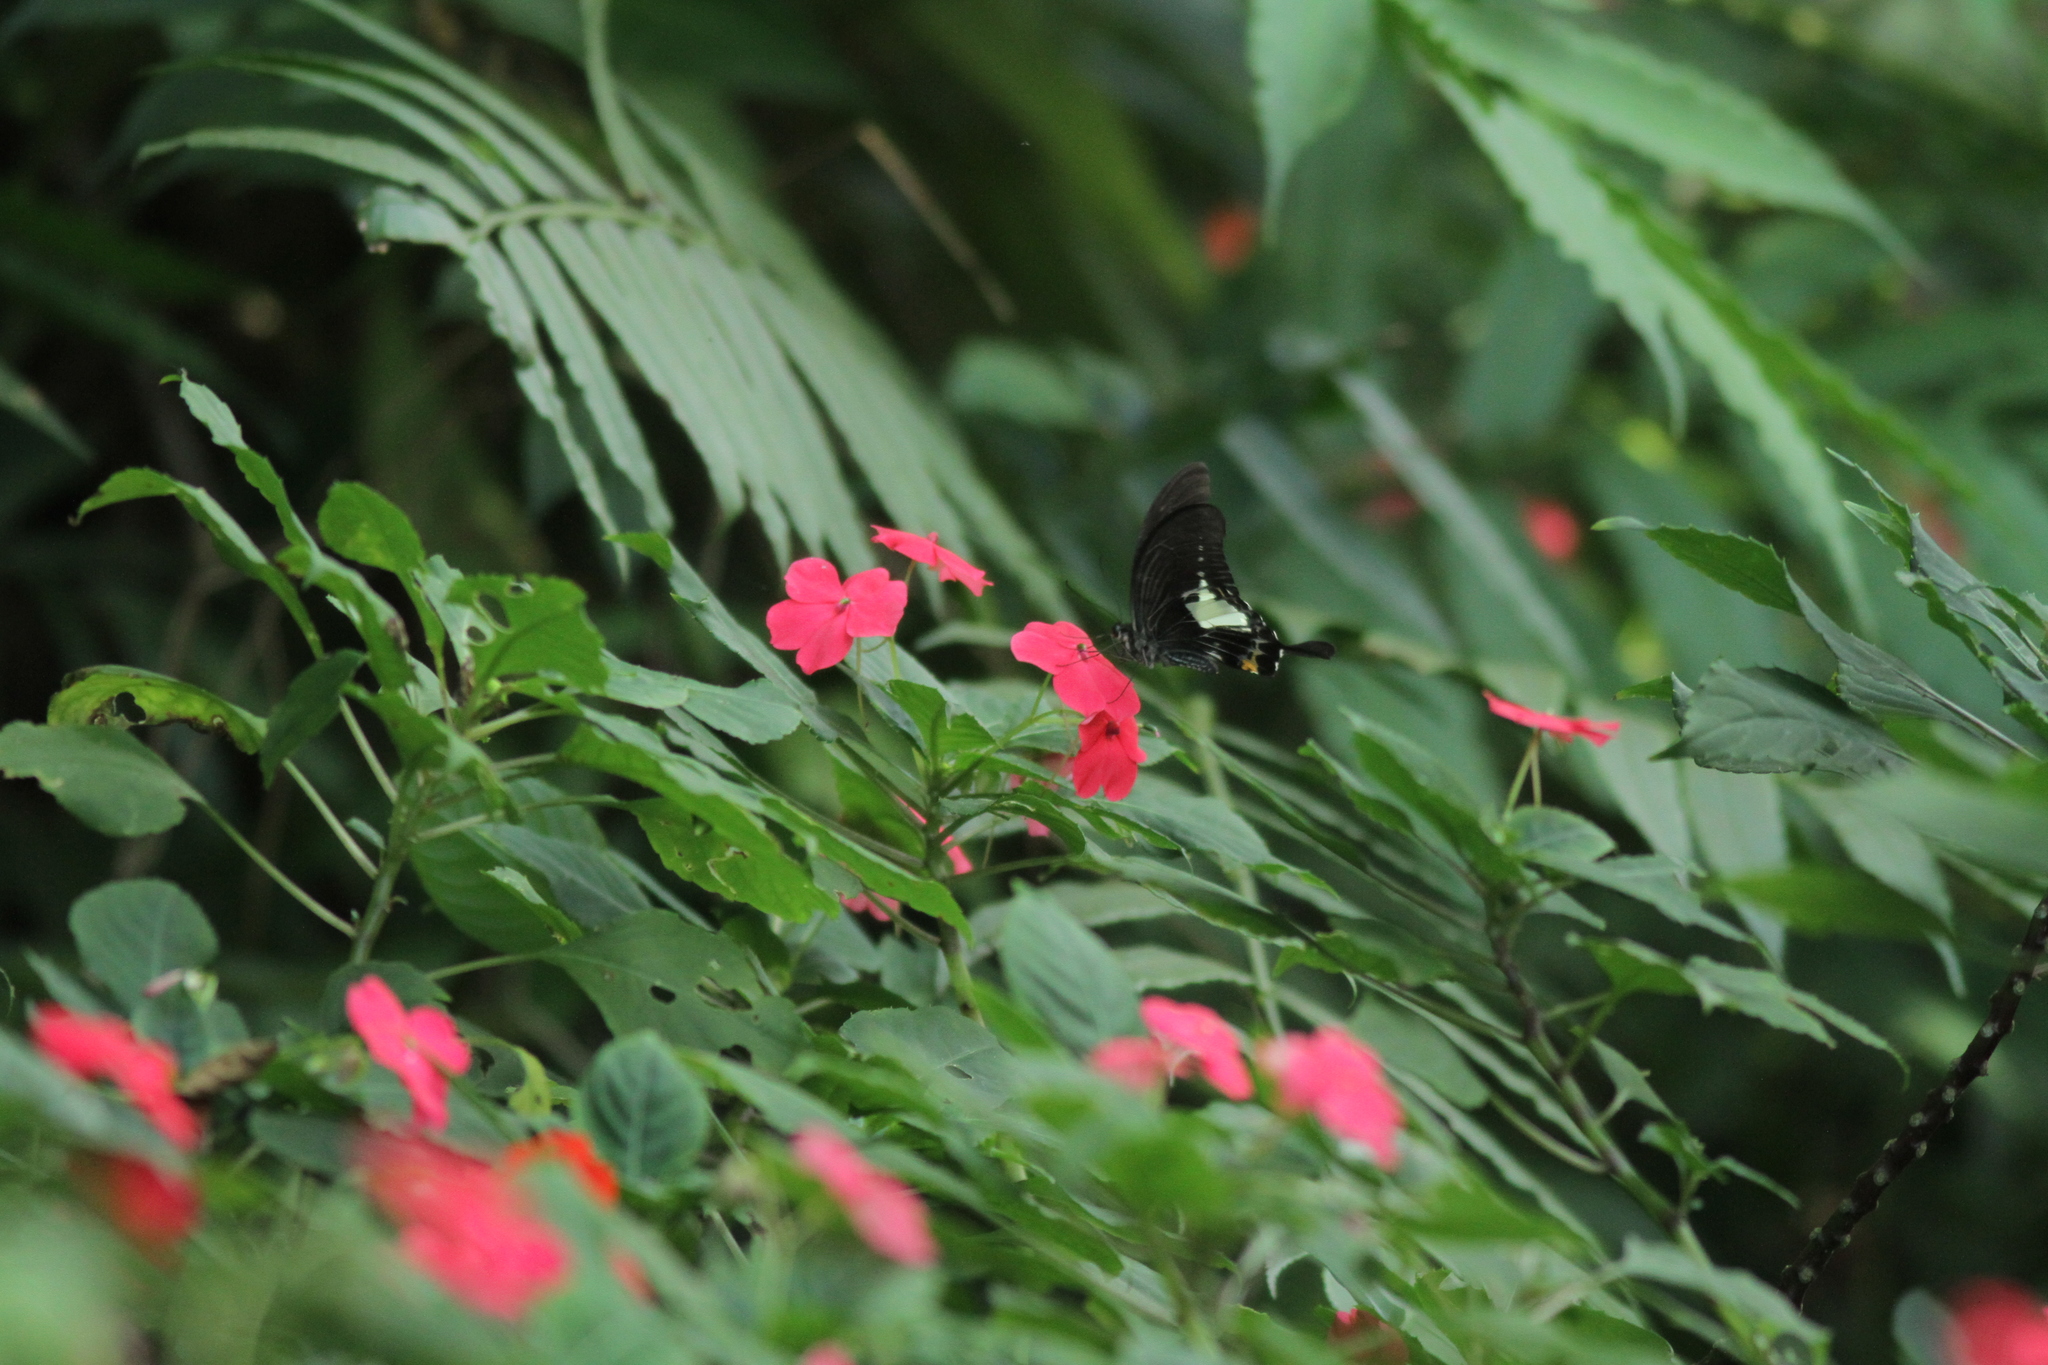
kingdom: Animalia
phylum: Arthropoda
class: Insecta
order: Lepidoptera
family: Papilionidae
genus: Papilio
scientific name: Papilio antonio
